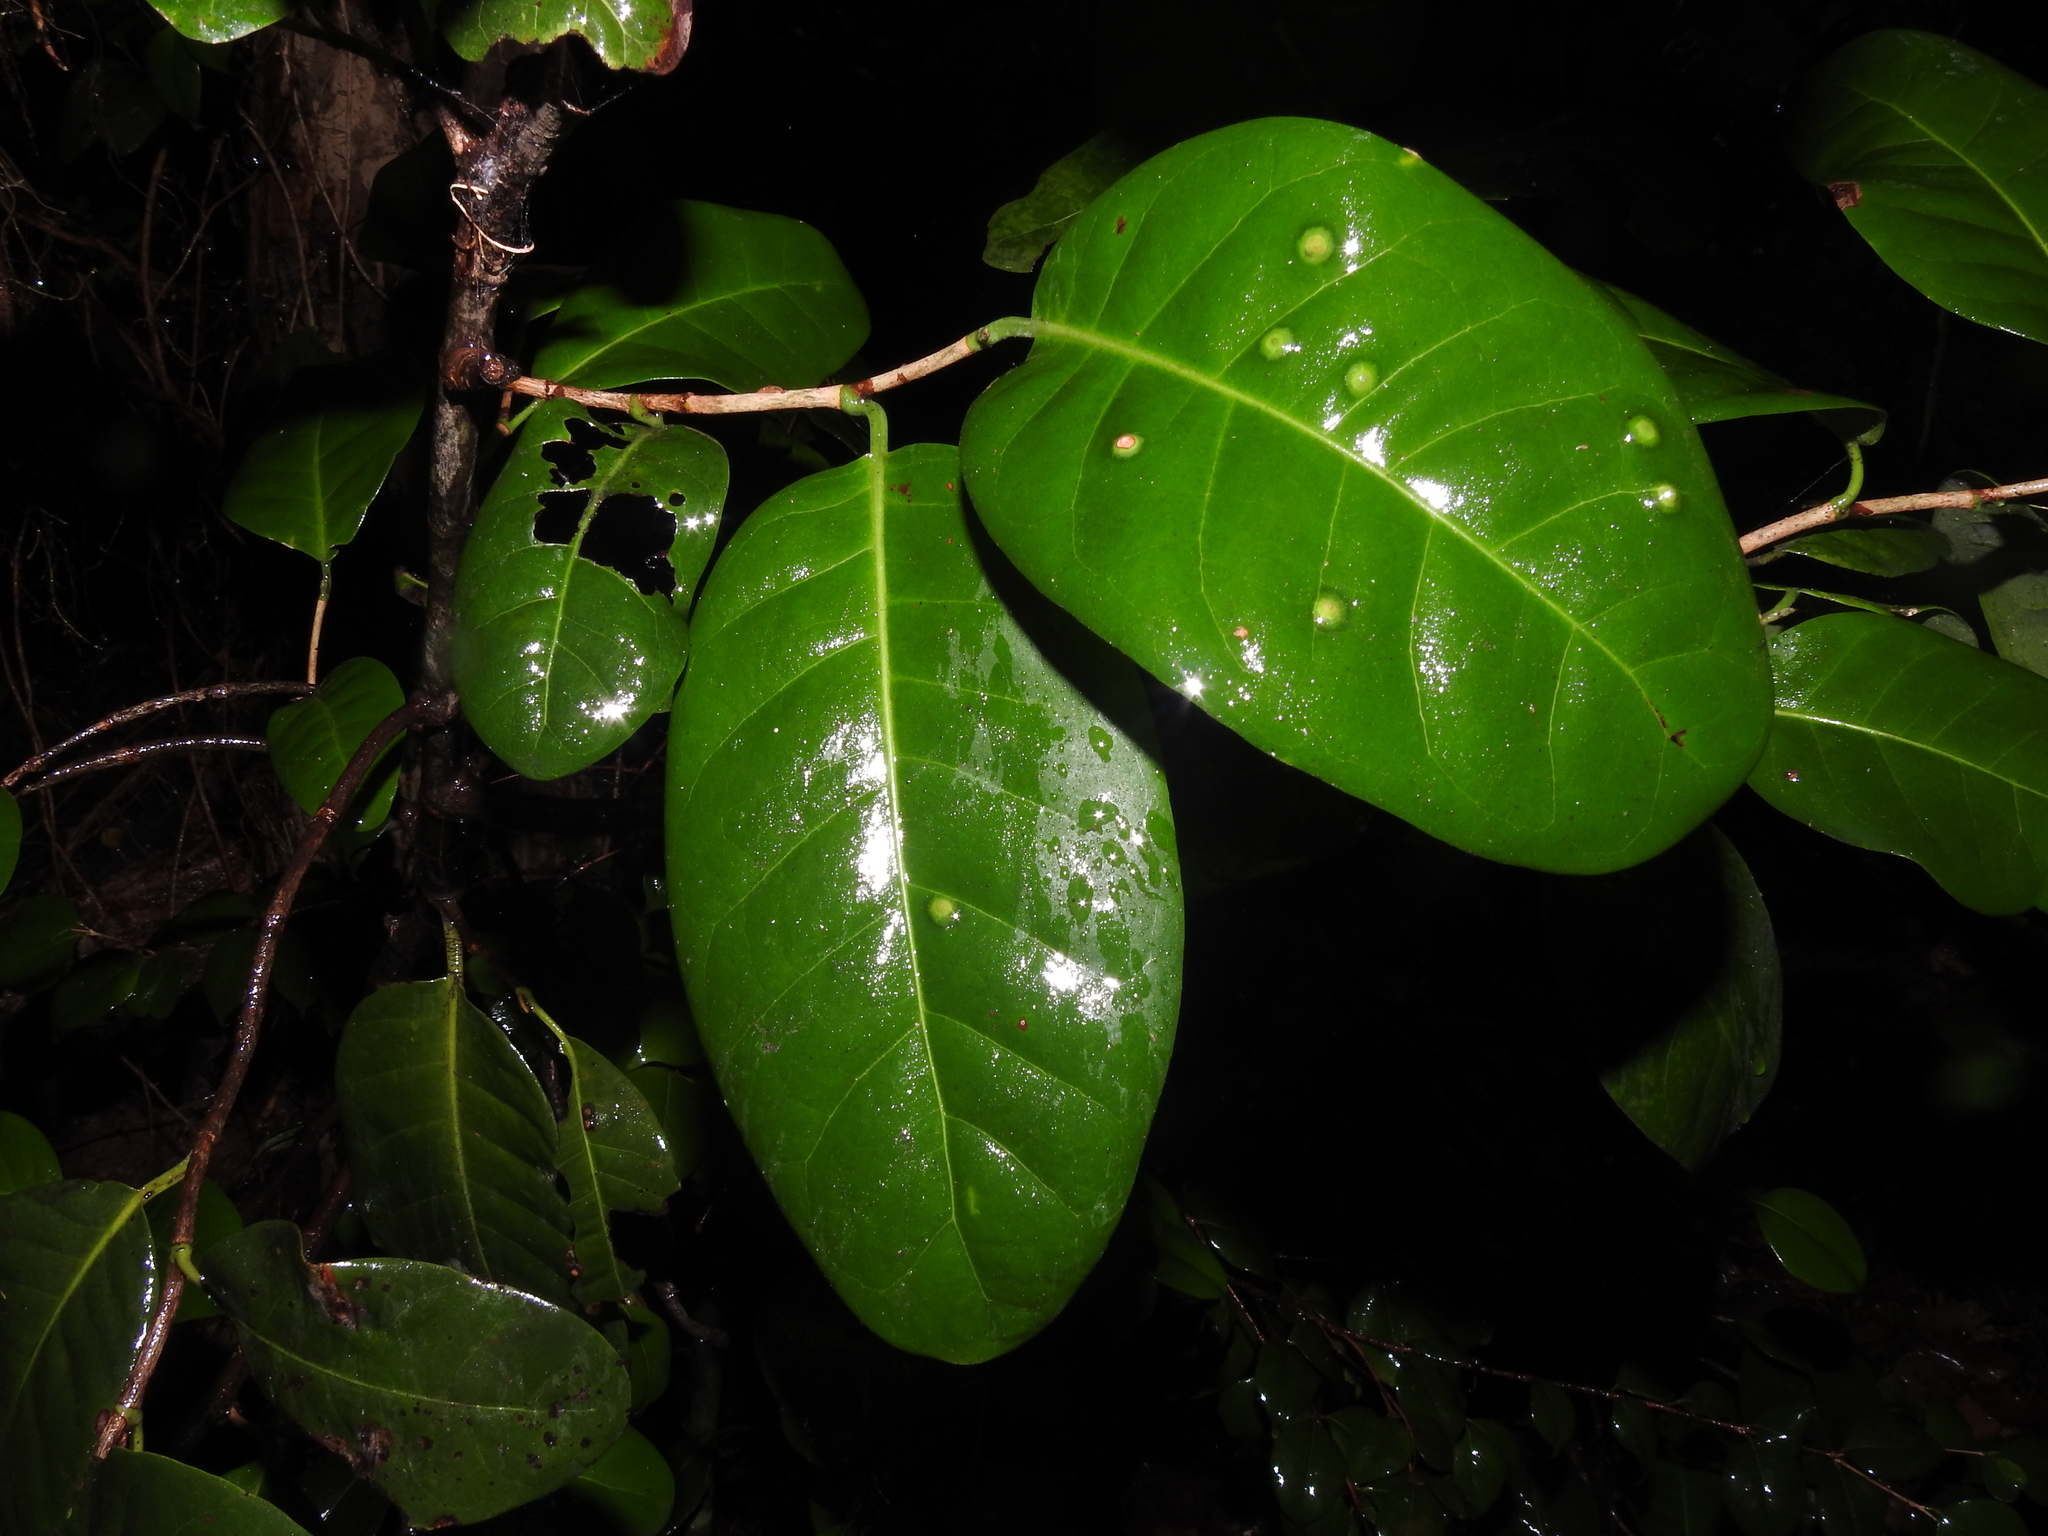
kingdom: Plantae
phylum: Tracheophyta
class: Magnoliopsida
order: Caryophyllales
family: Polygonaceae
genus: Coccoloba
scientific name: Coccoloba diversifolia
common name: Pigeon-plum
